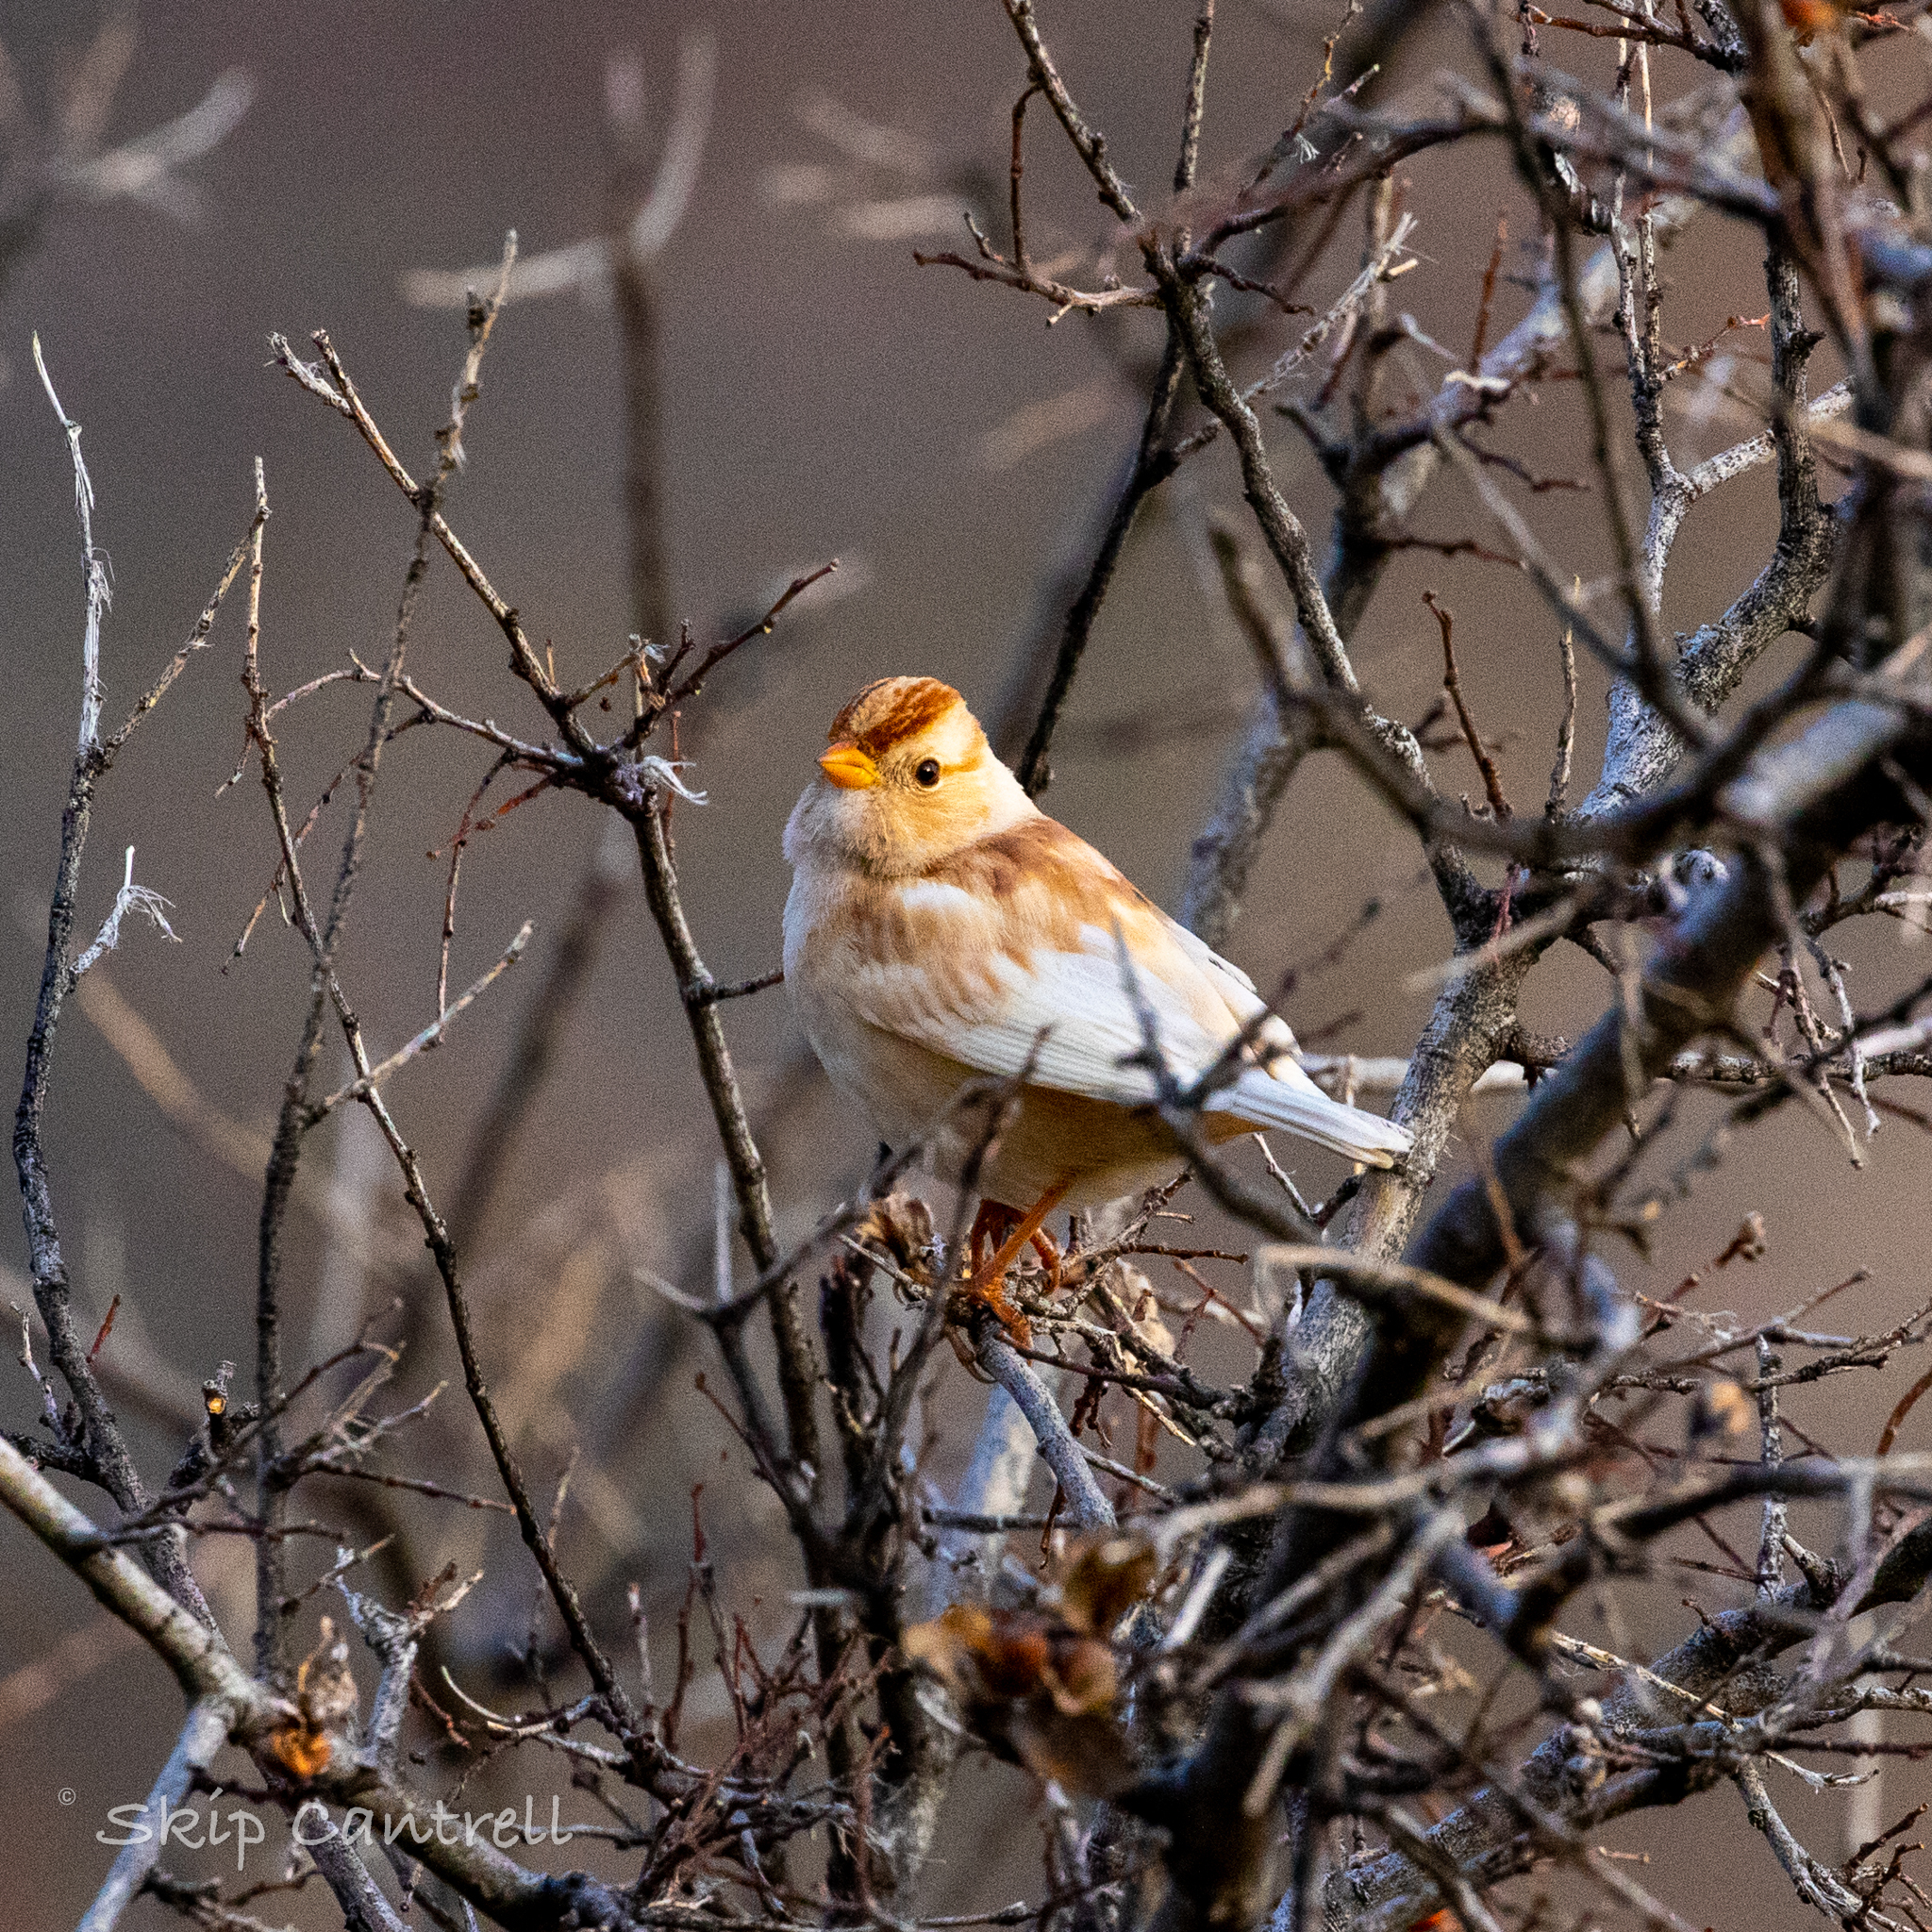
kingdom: Animalia
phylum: Chordata
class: Aves
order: Passeriformes
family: Passerellidae
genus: Zonotrichia
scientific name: Zonotrichia leucophrys
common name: White-crowned sparrow
